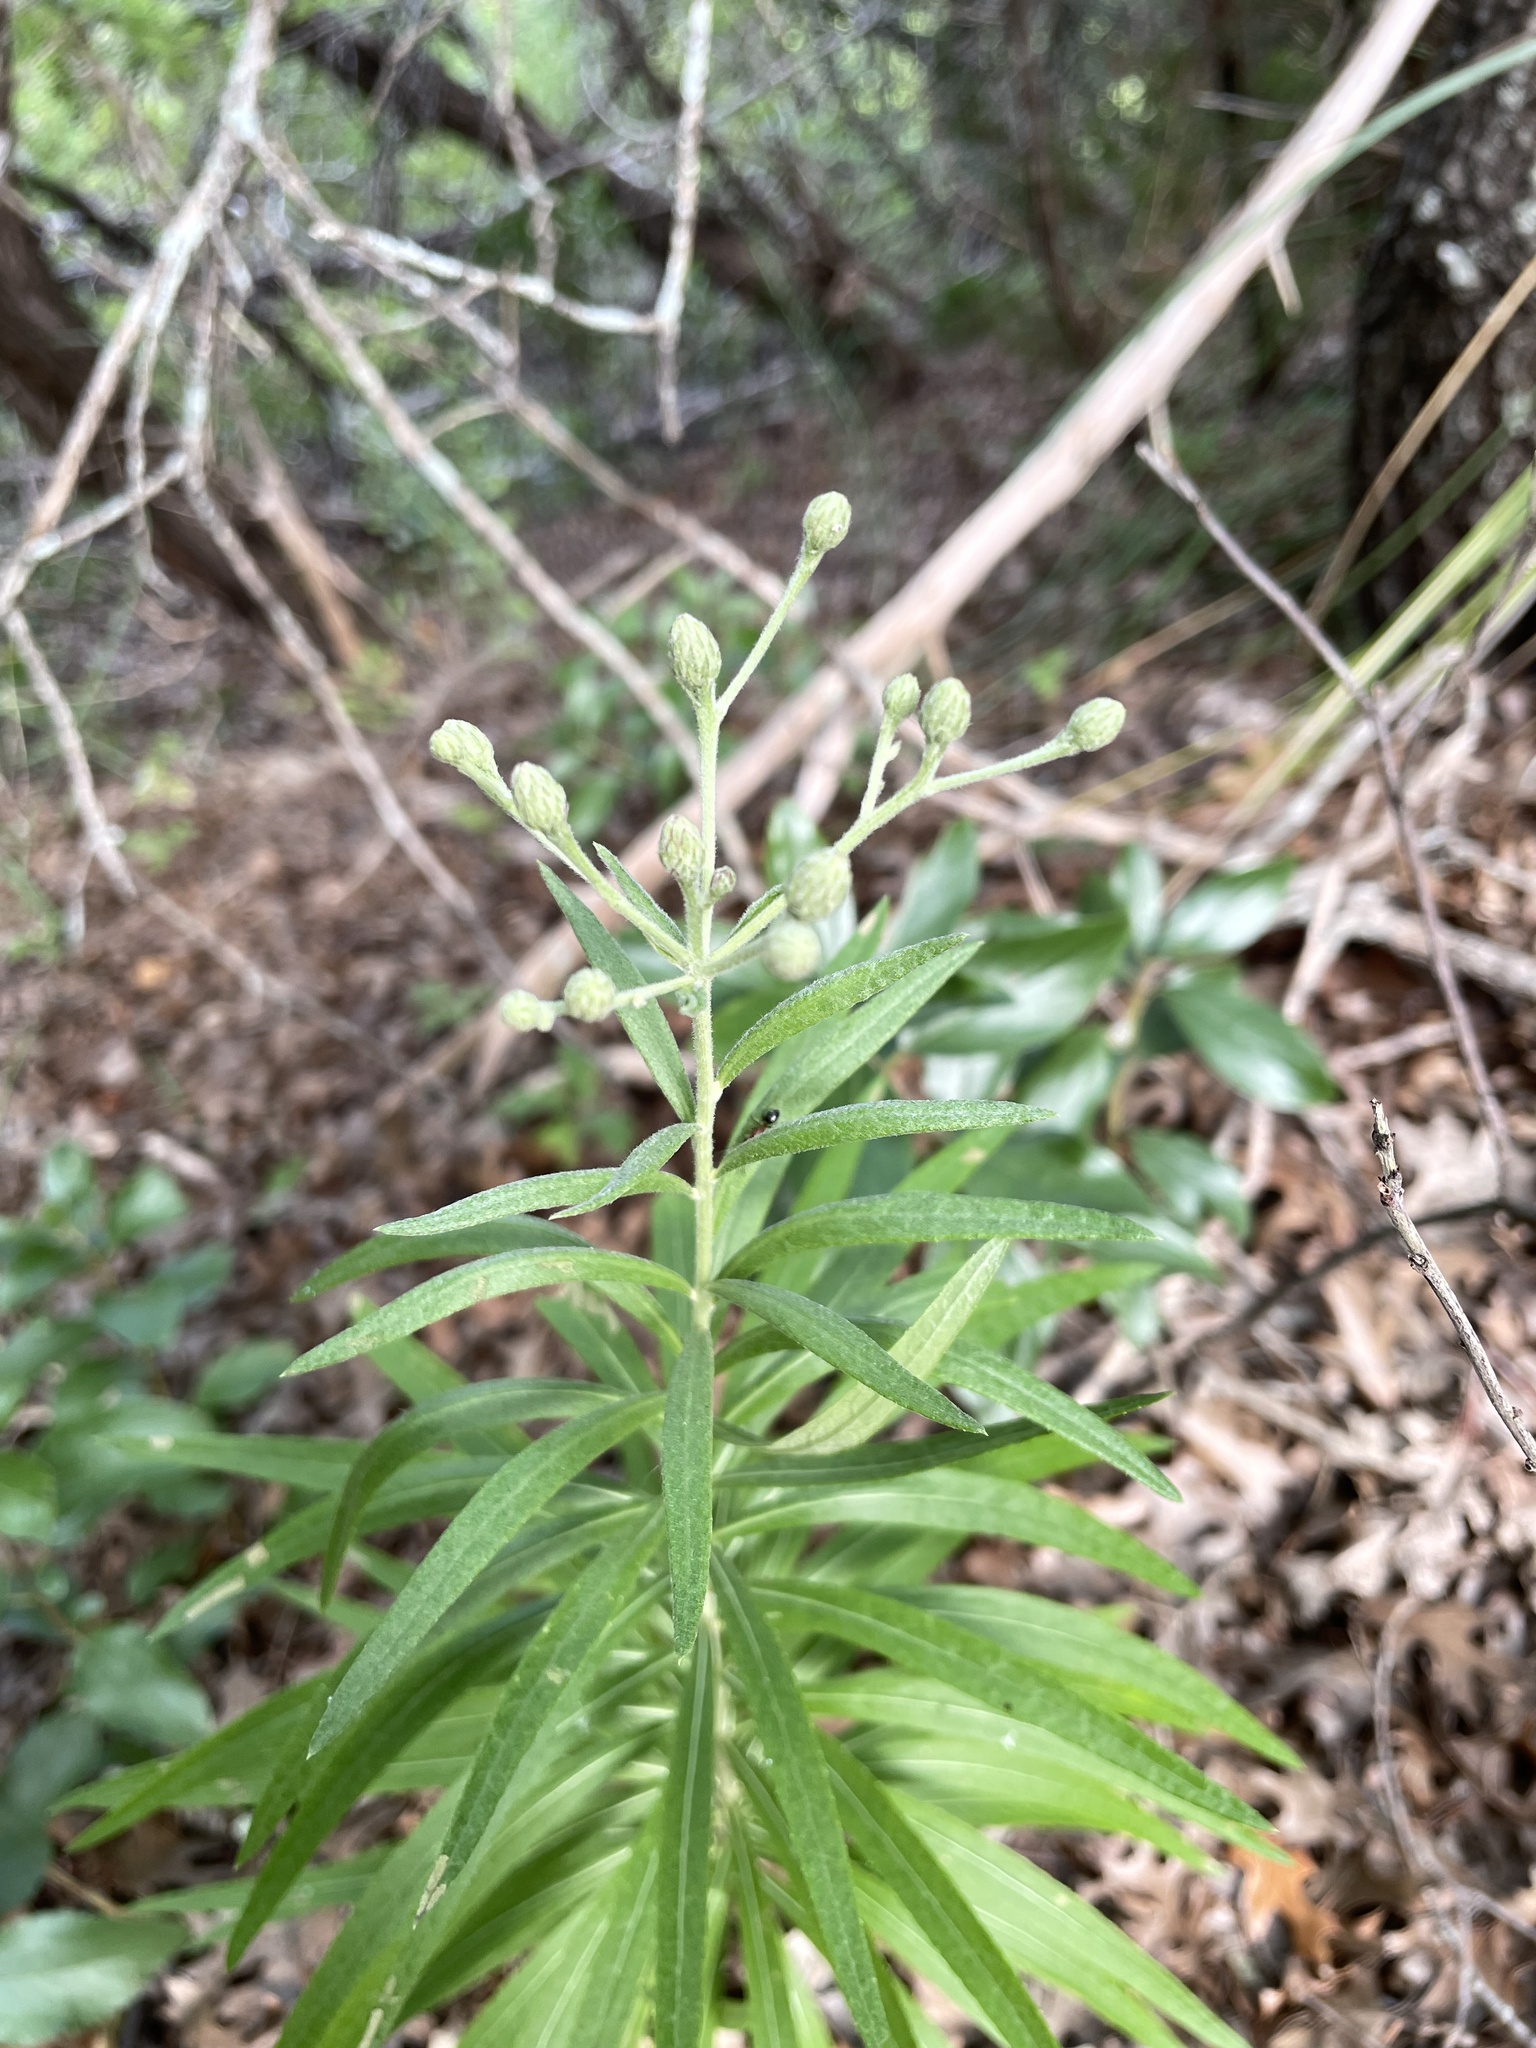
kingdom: Plantae
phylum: Tracheophyta
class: Magnoliopsida
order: Asterales
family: Asteraceae
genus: Vernonia
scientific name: Vernonia lindheimeri
